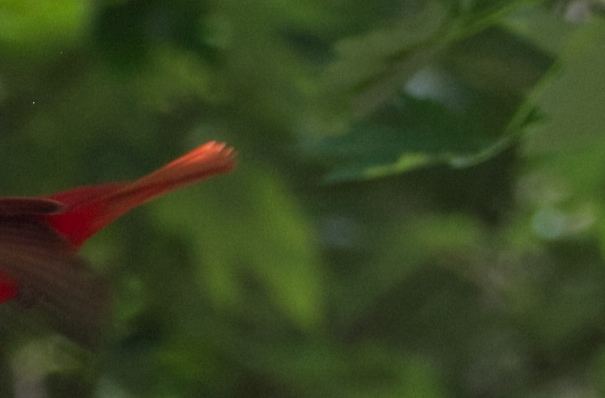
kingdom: Animalia
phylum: Chordata
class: Aves
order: Passeriformes
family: Cardinalidae
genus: Piranga
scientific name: Piranga rubra
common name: Summer tanager
